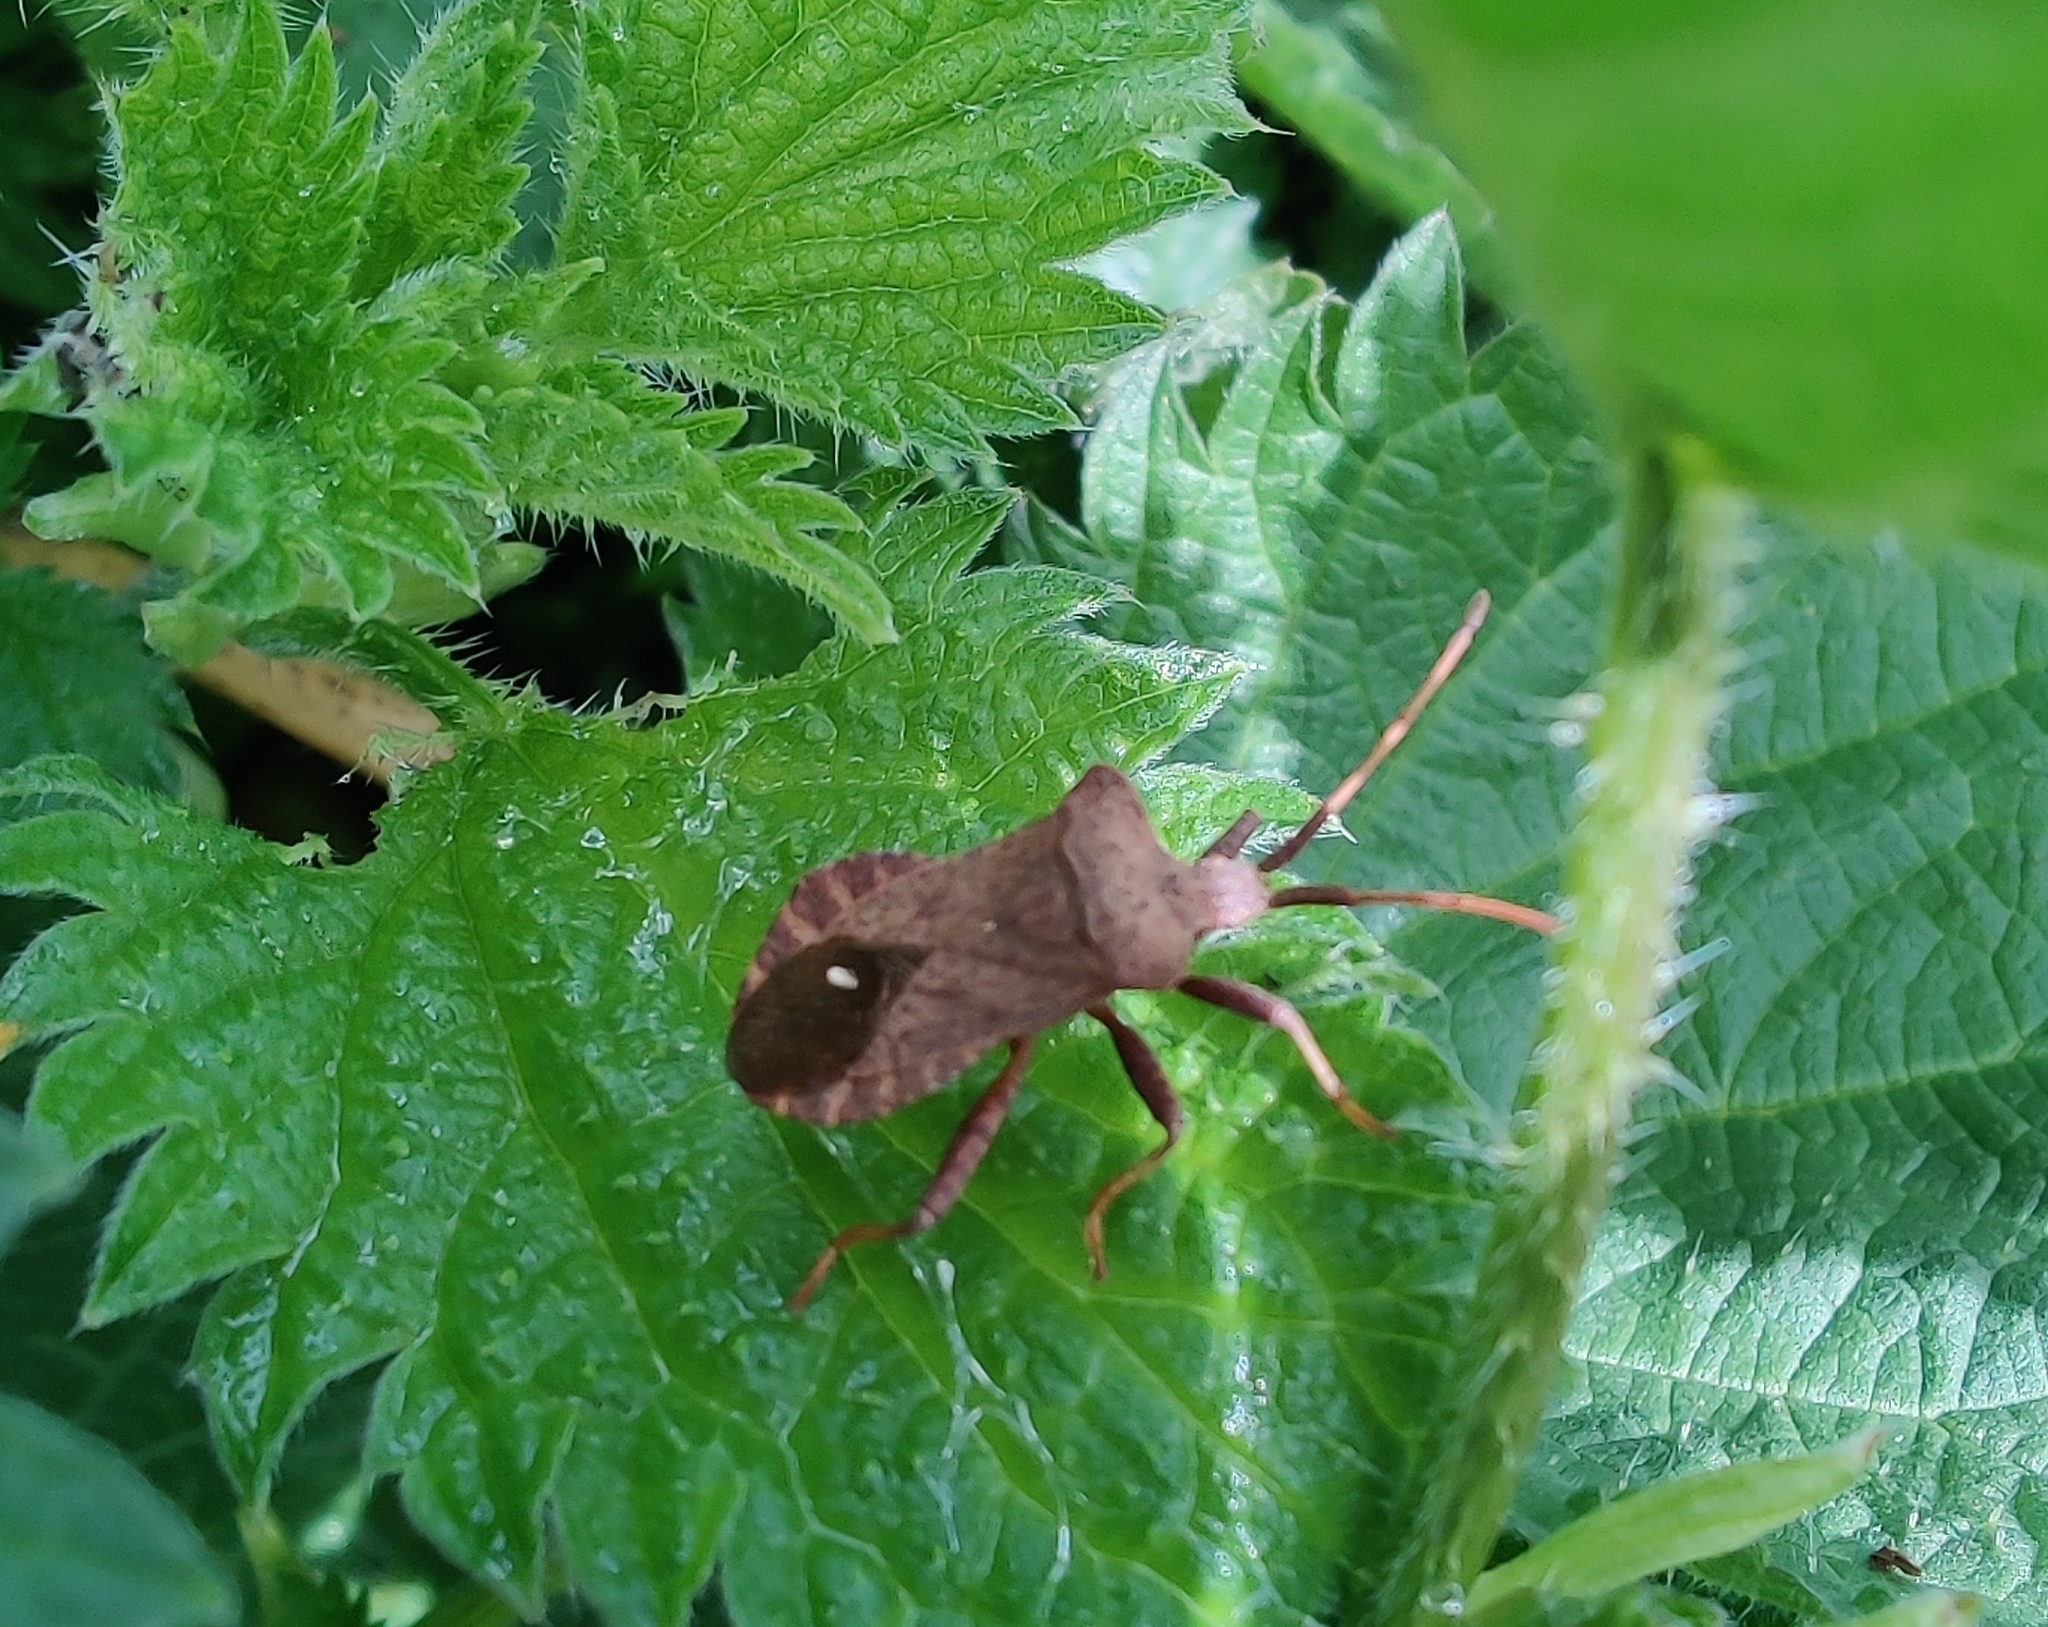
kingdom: Animalia
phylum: Arthropoda
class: Insecta
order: Hemiptera
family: Coreidae
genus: Coreus
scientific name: Coreus marginatus
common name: Dock bug
